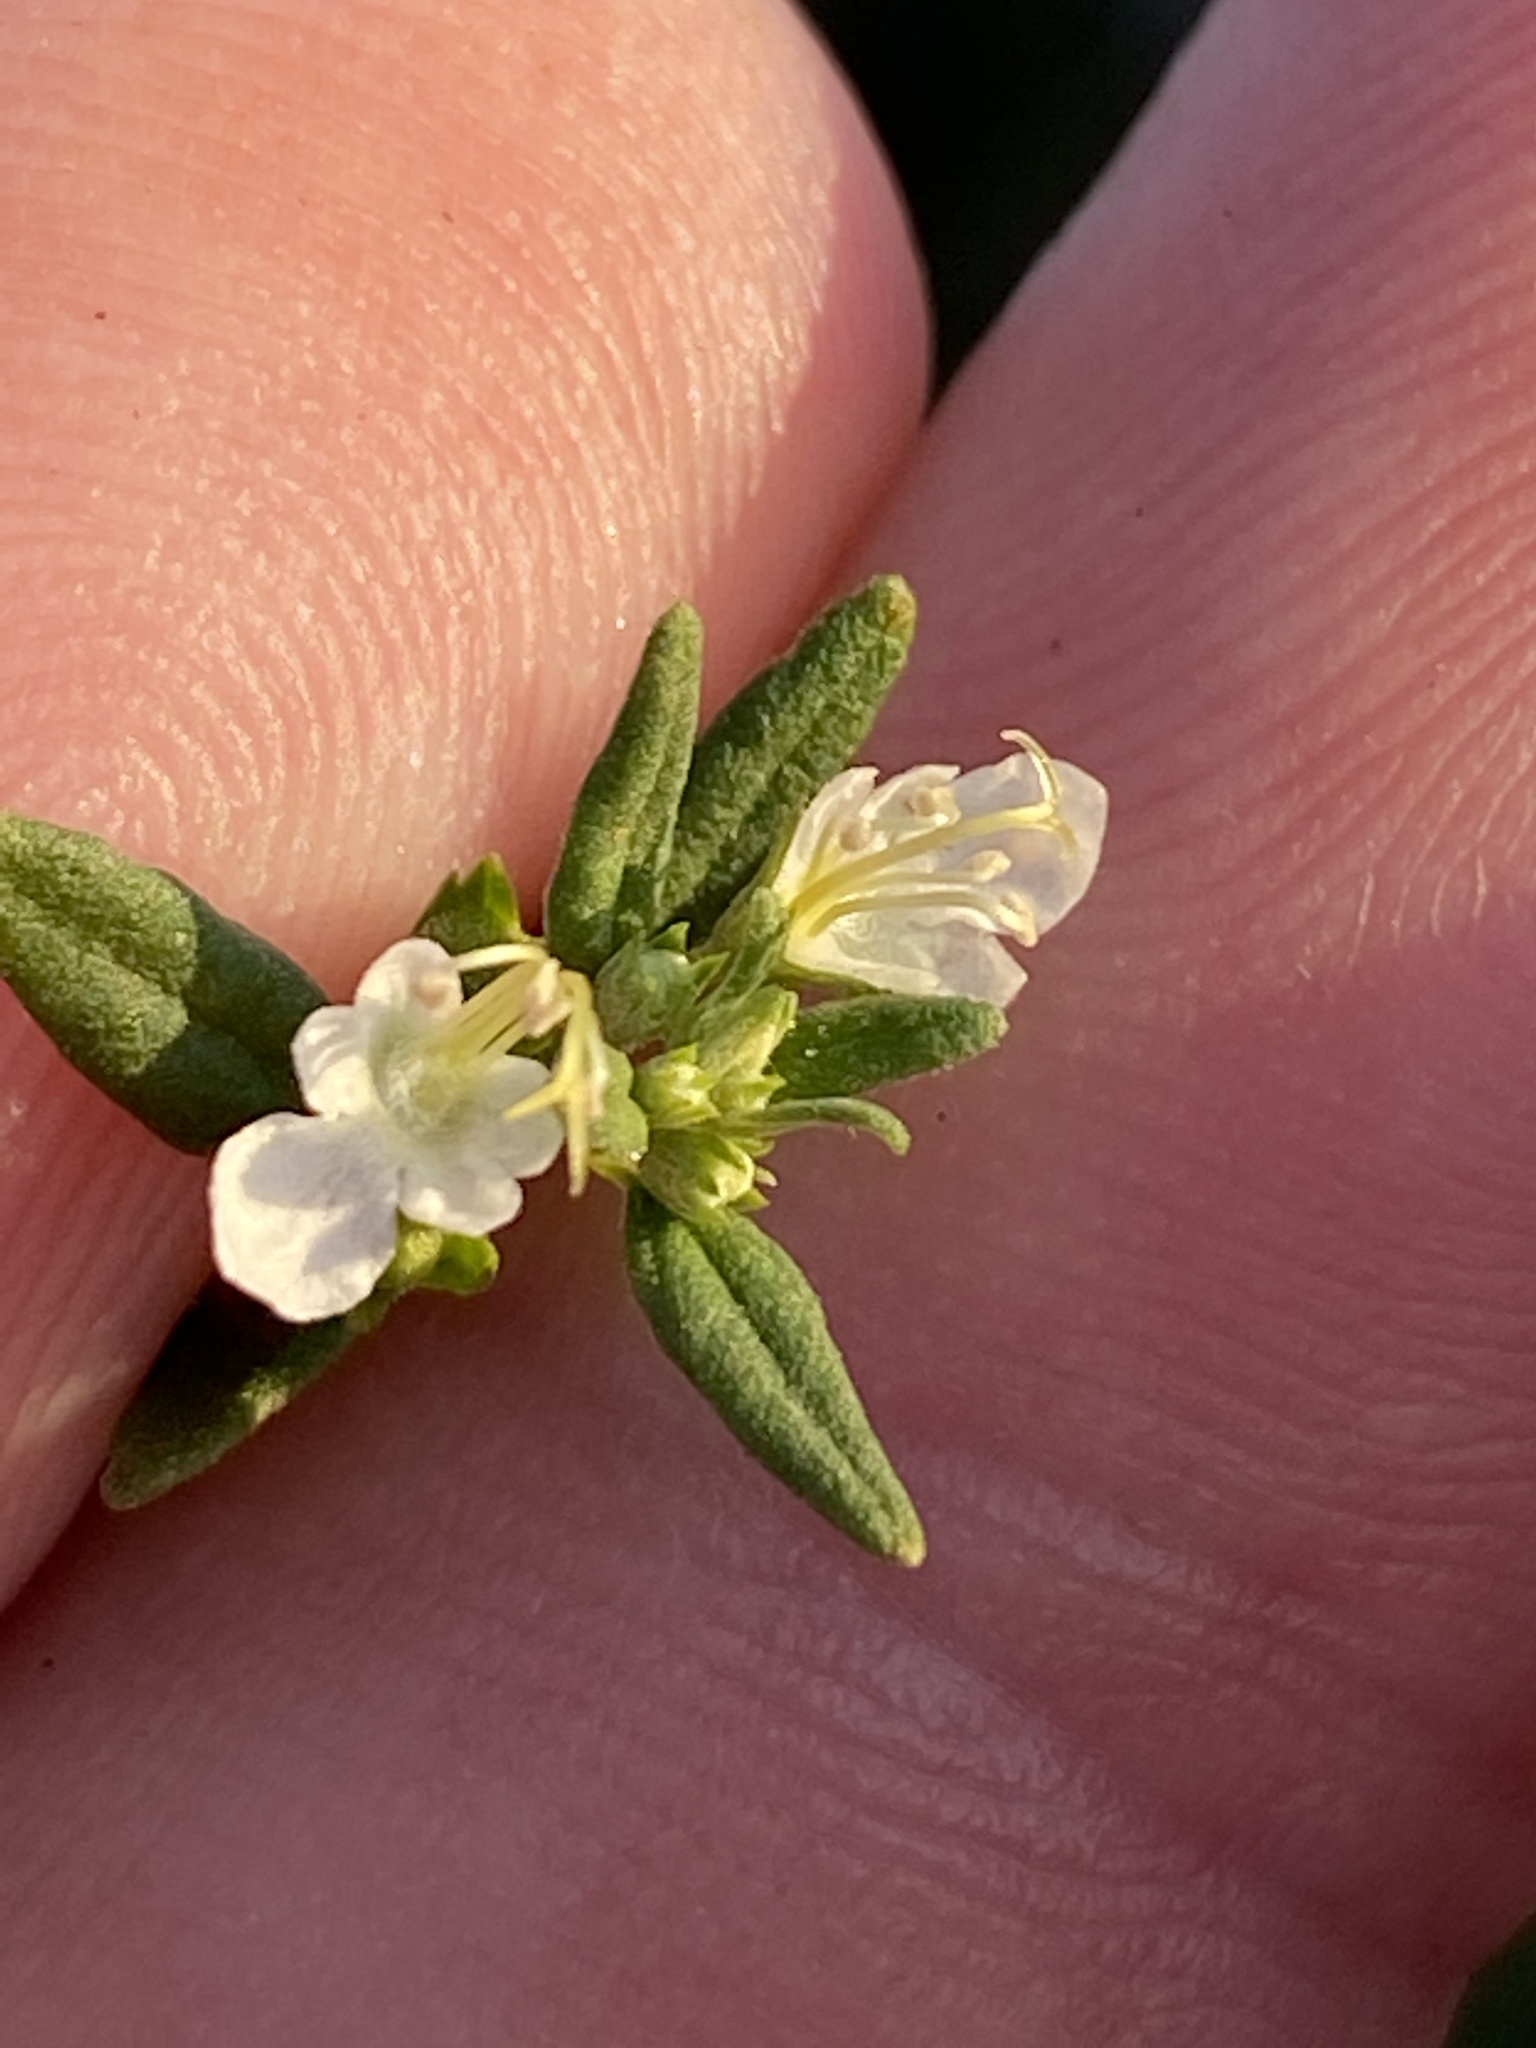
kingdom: Plantae
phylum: Tracheophyta
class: Magnoliopsida
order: Lamiales
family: Lamiaceae
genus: Teucrium
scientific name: Teucrium trifidum
